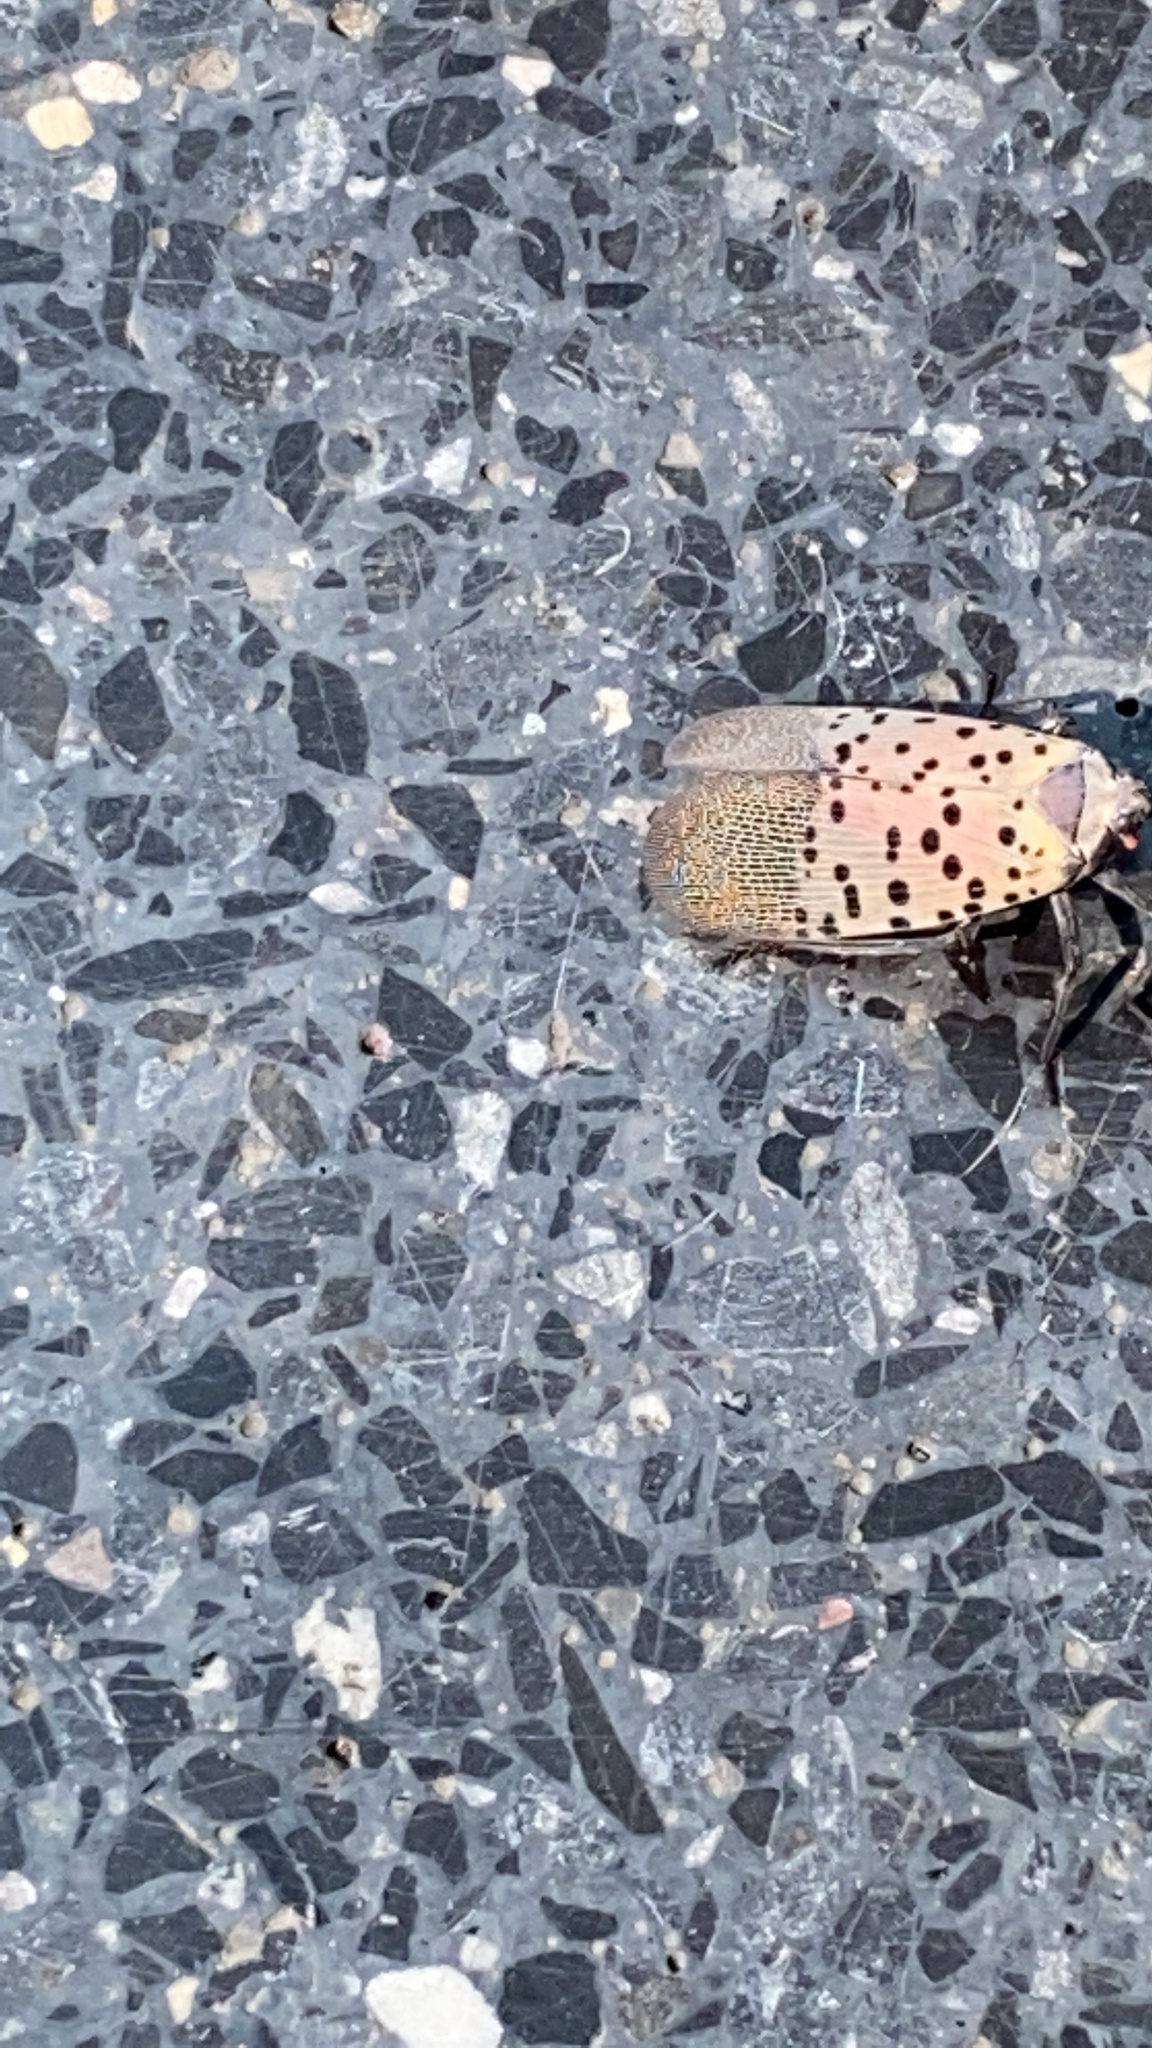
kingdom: Animalia
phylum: Arthropoda
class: Insecta
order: Hemiptera
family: Fulgoridae
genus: Lycorma
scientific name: Lycorma delicatula
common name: Spotted lanternfly
